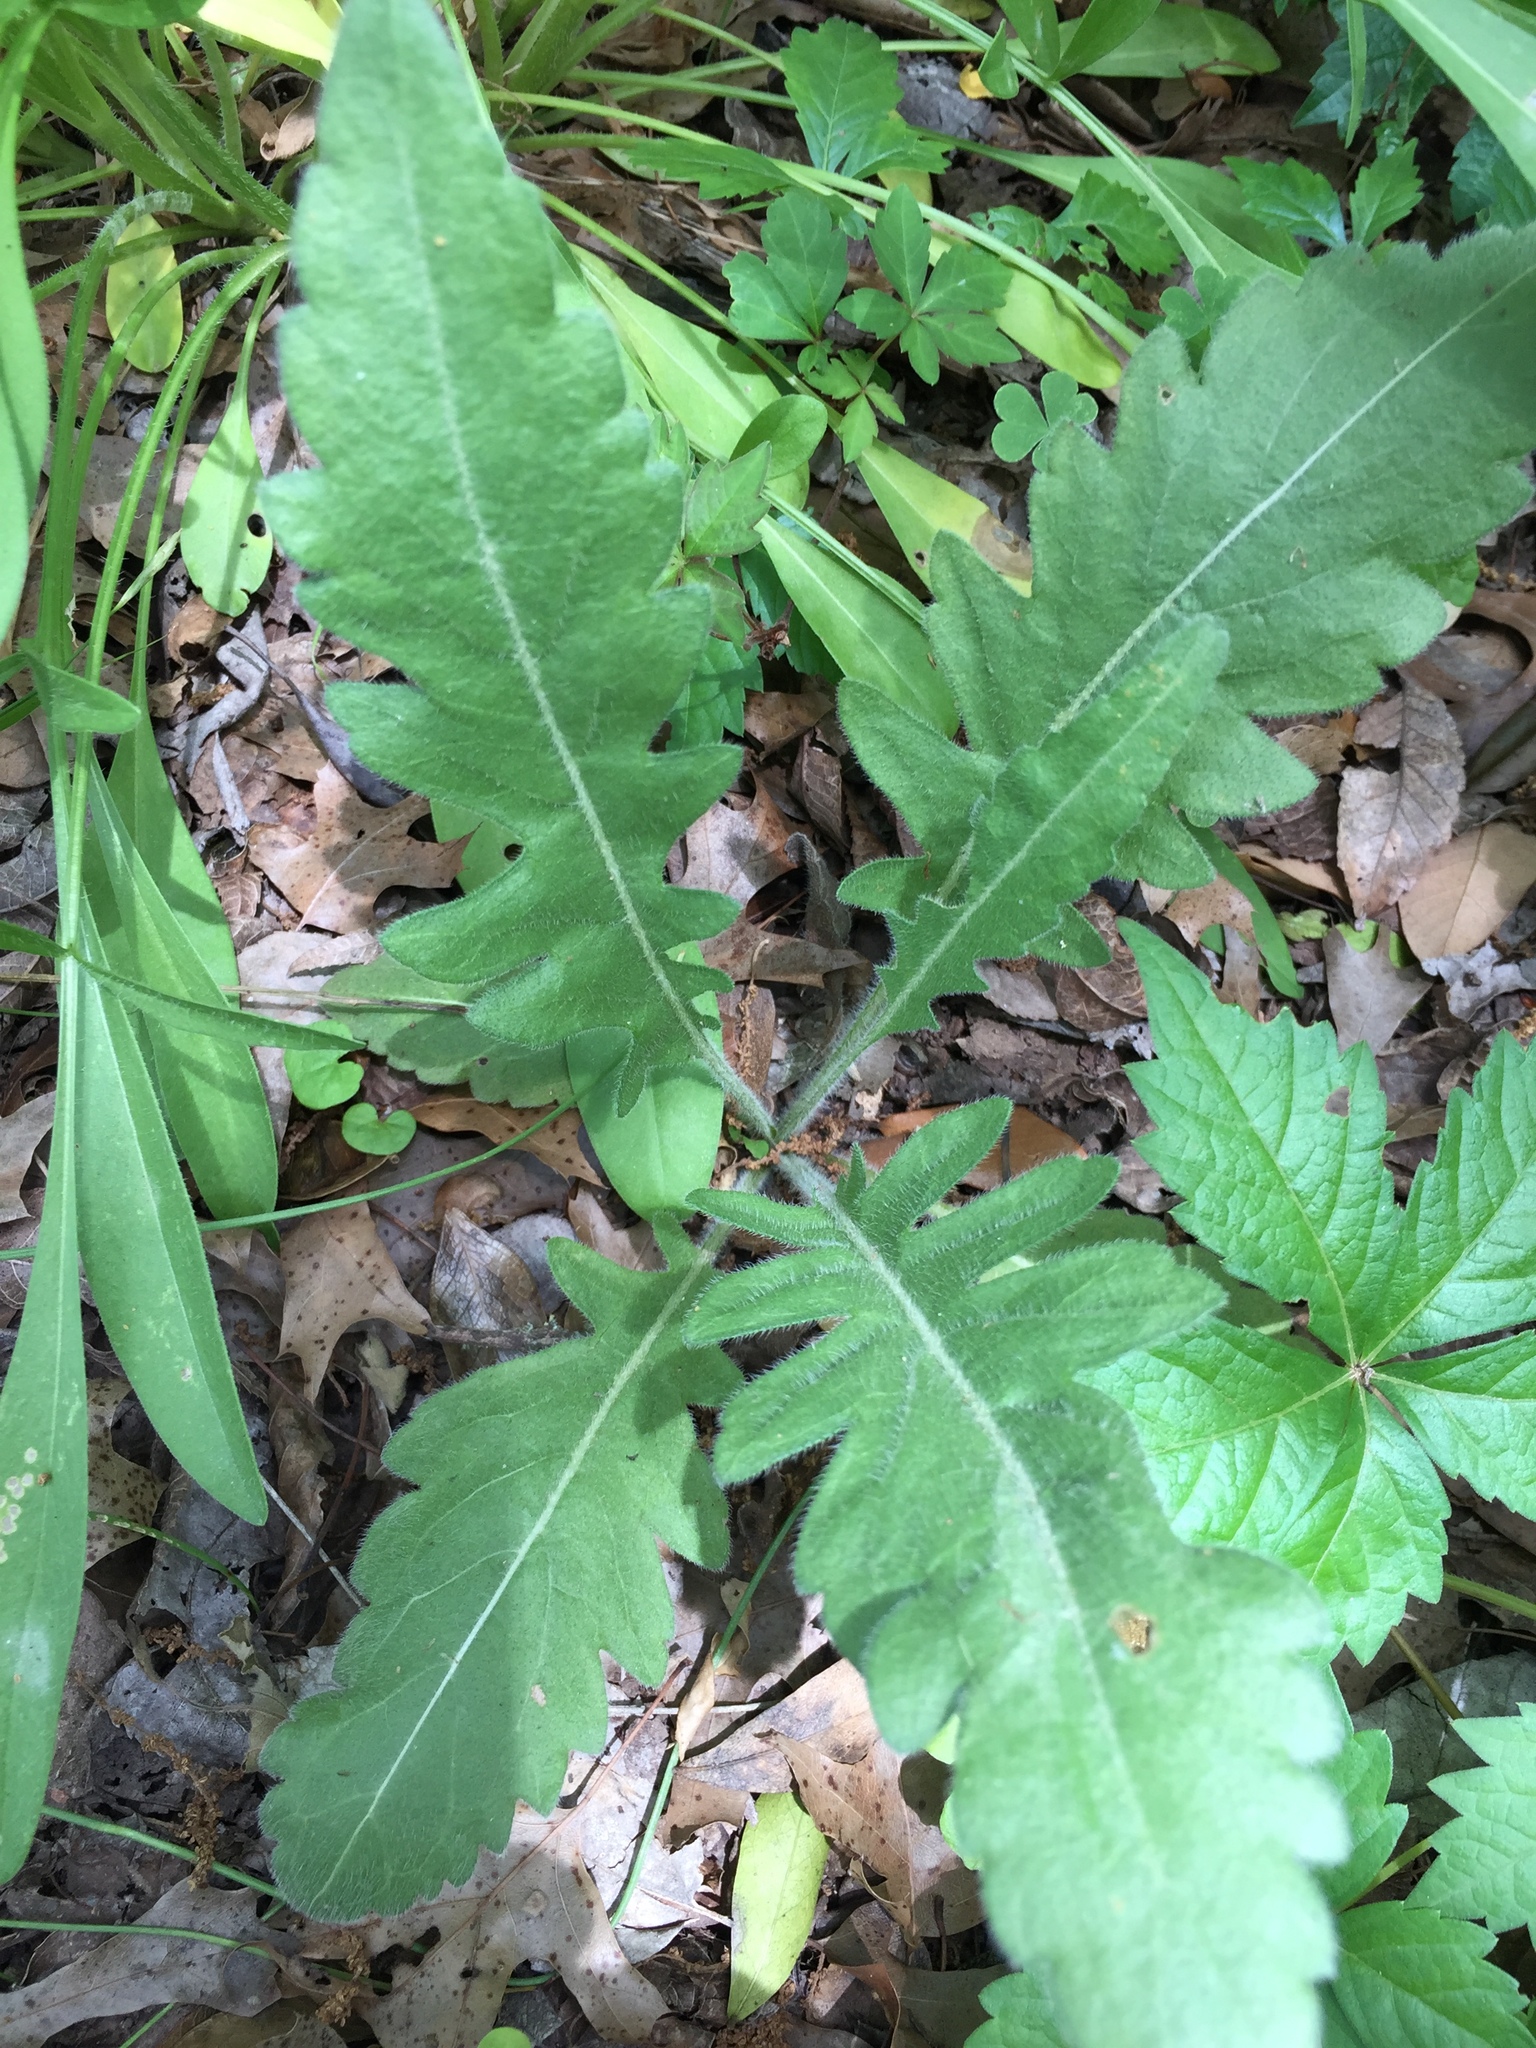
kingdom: Plantae
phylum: Tracheophyta
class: Magnoliopsida
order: Asterales
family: Asteraceae
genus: Engelmannia
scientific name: Engelmannia peristenia
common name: Engelmann's daisy
